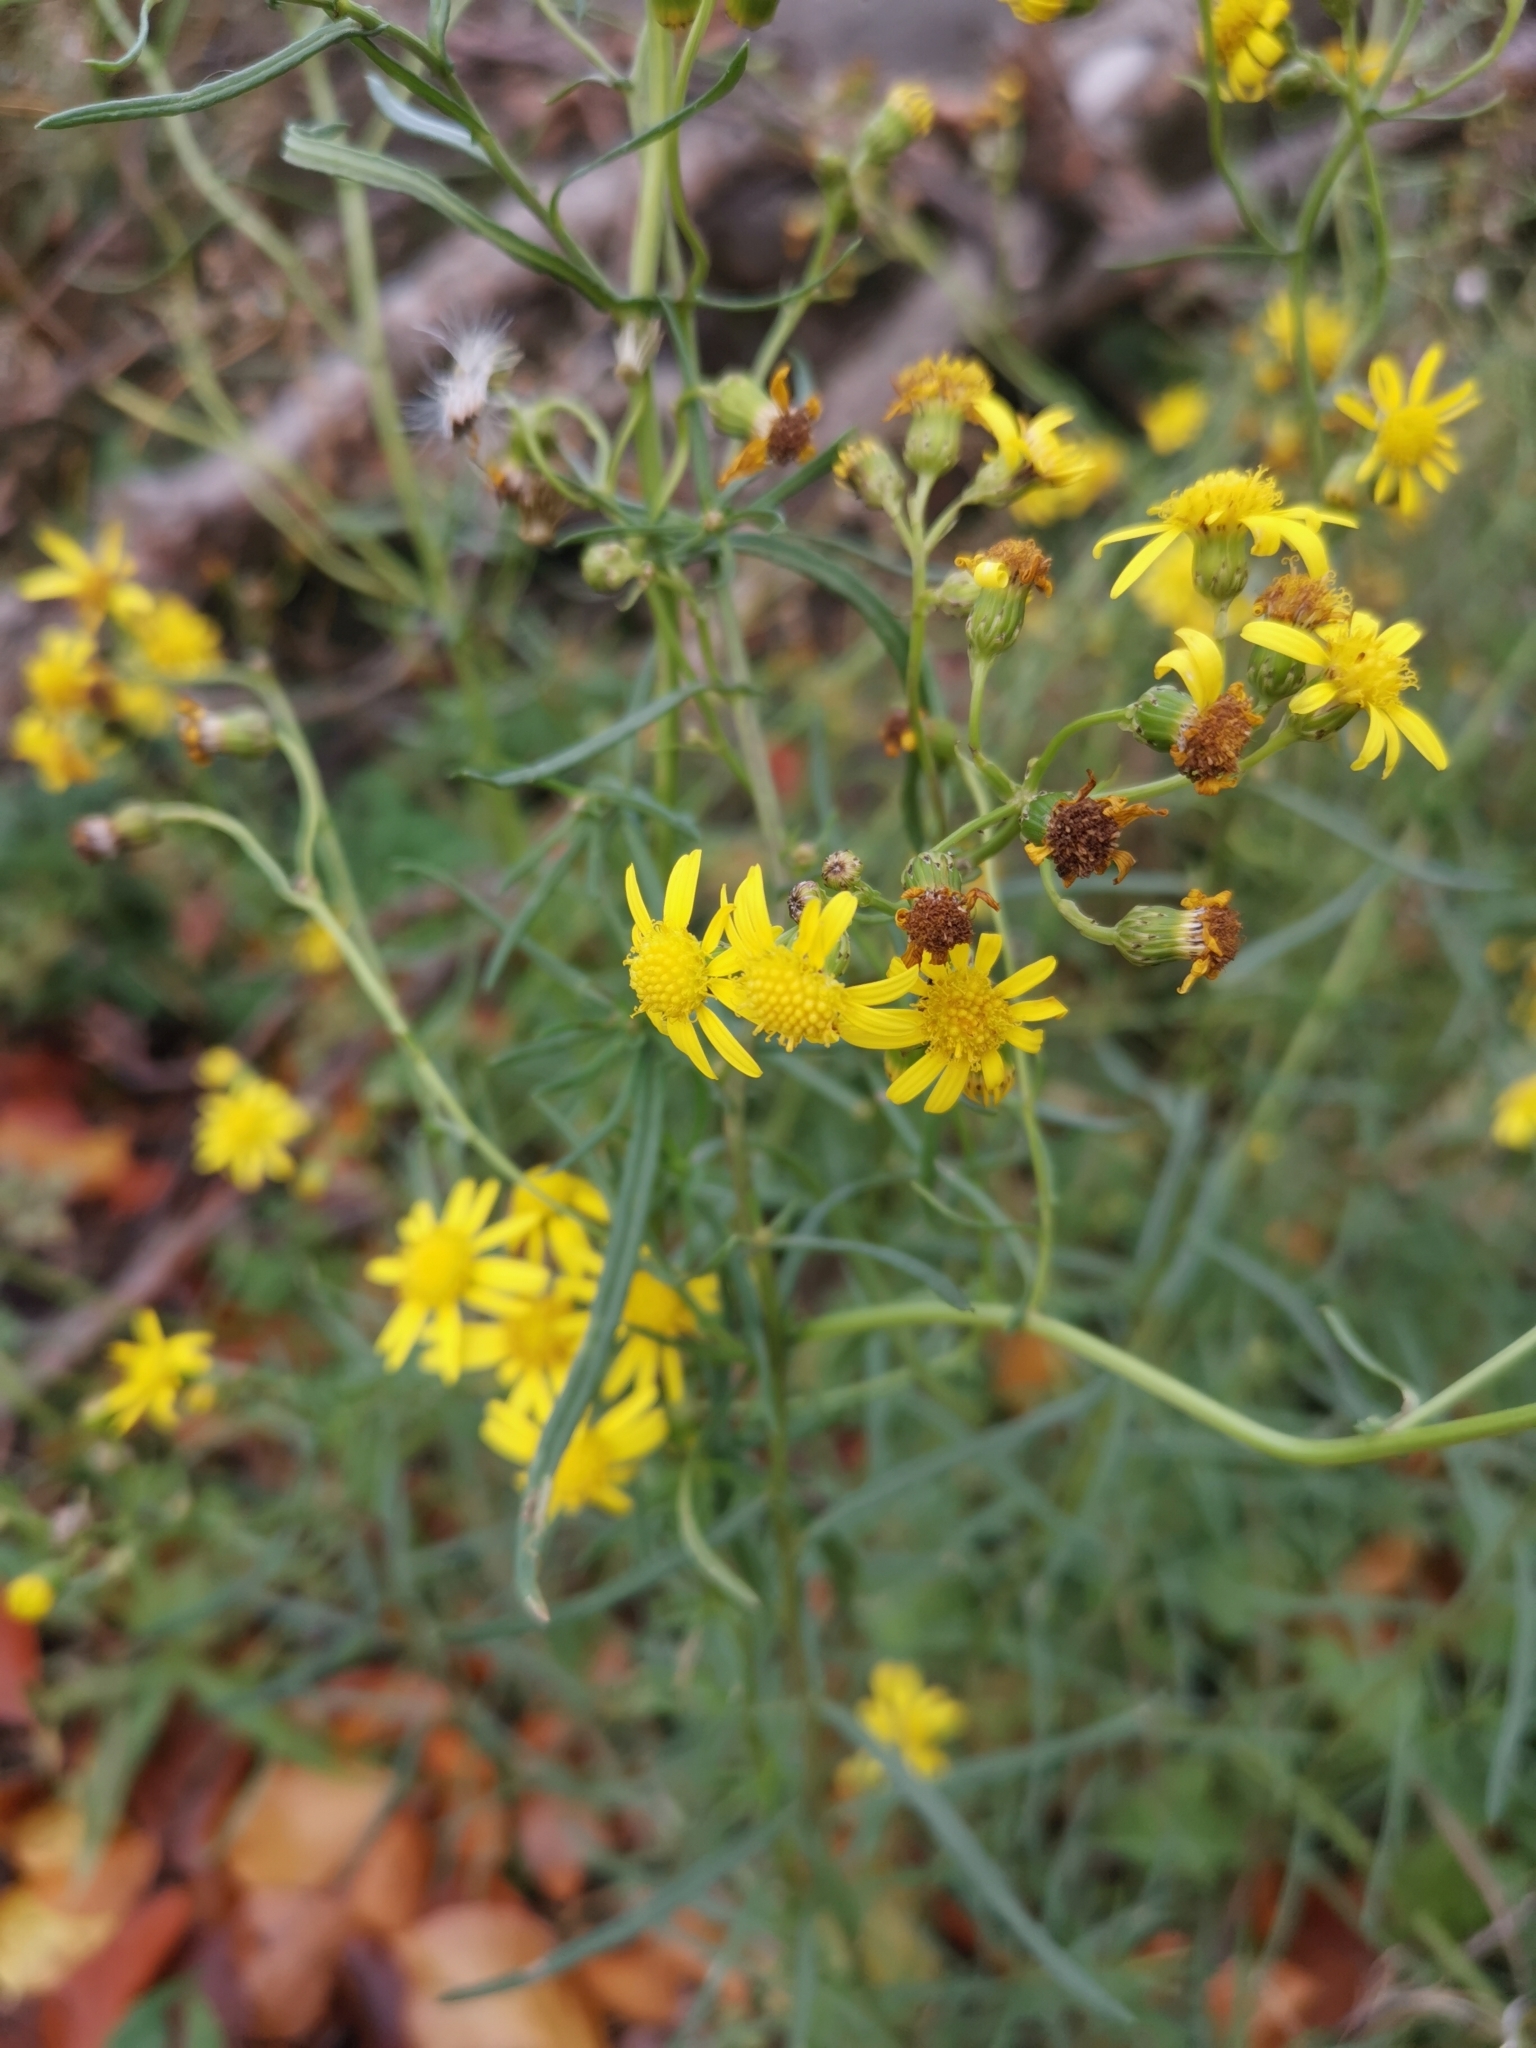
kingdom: Plantae
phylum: Tracheophyta
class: Magnoliopsida
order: Asterales
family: Asteraceae
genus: Senecio
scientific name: Senecio inaequidens
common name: Narrow-leaved ragwort
